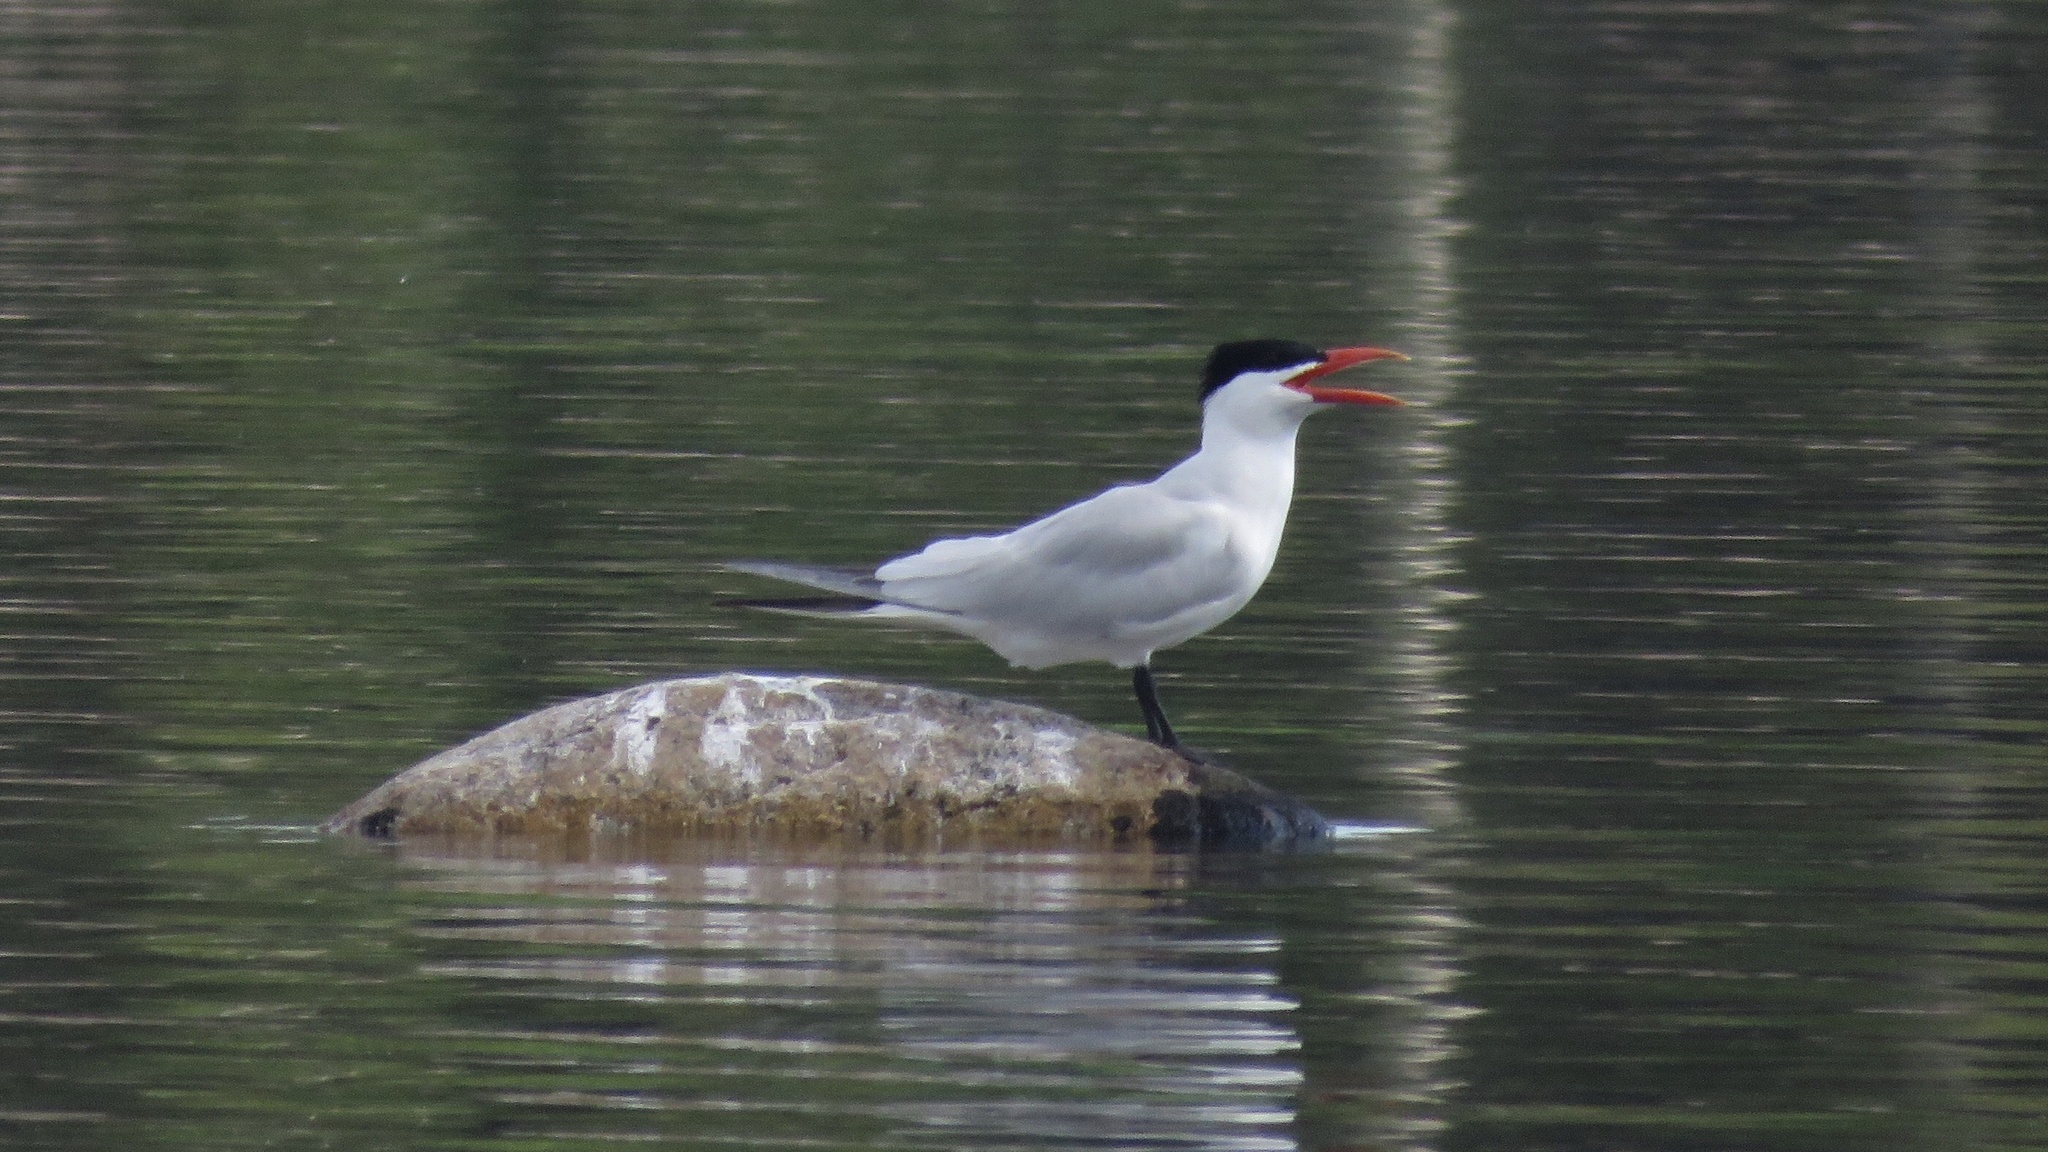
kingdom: Animalia
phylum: Chordata
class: Aves
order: Charadriiformes
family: Laridae
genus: Hydroprogne
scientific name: Hydroprogne caspia
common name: Caspian tern
